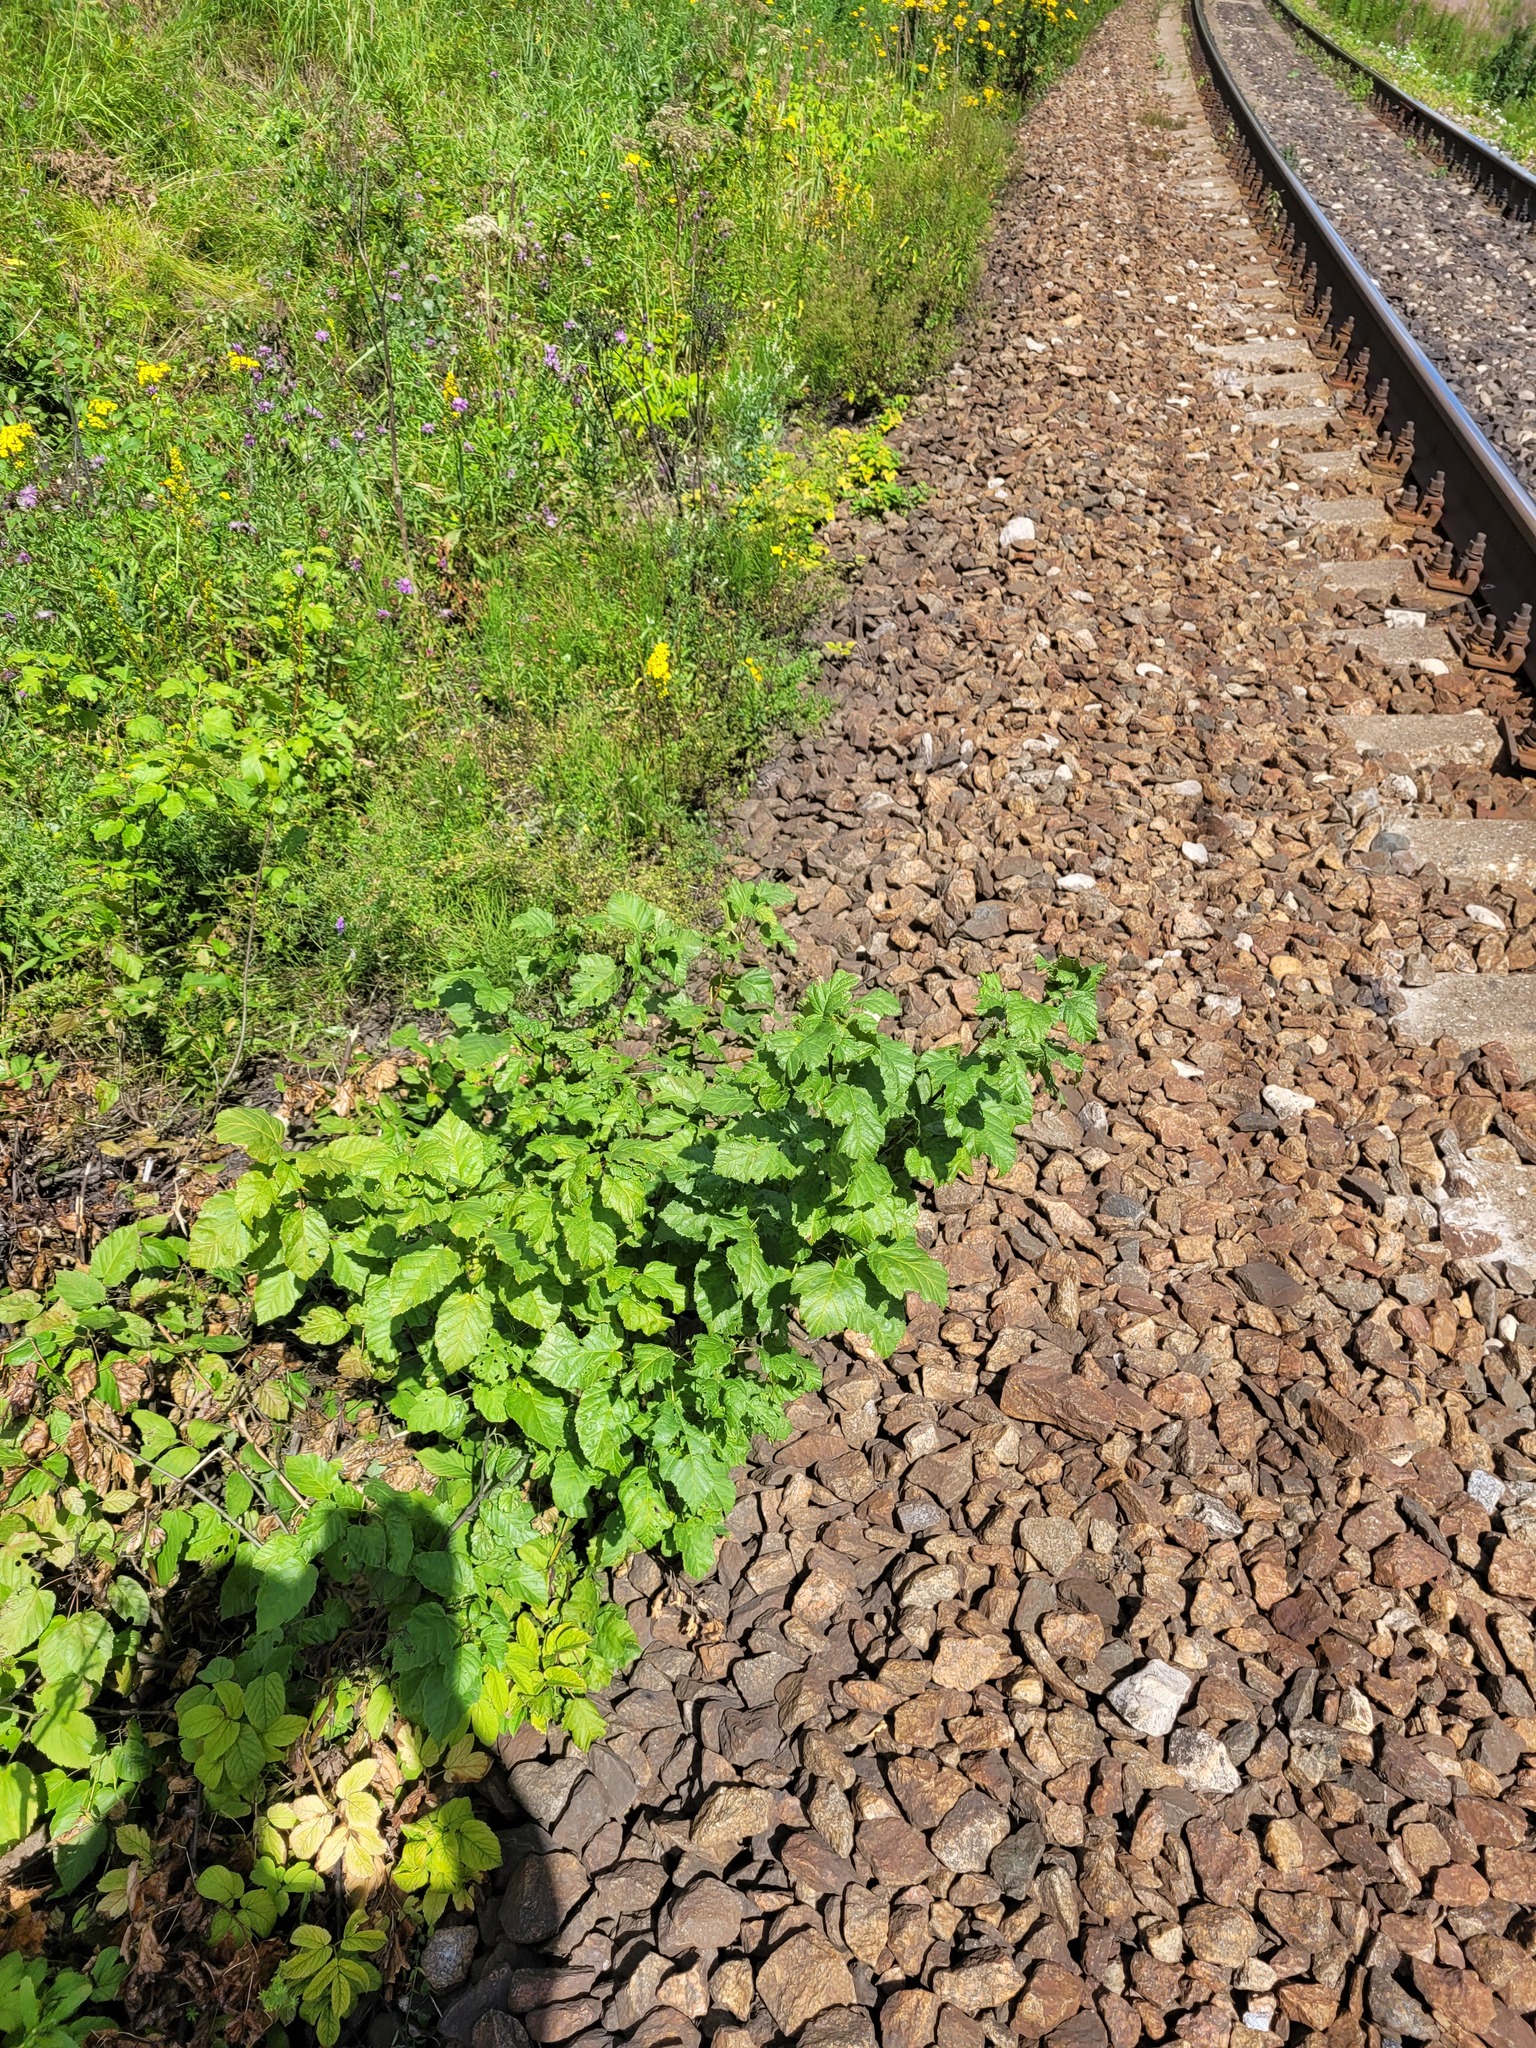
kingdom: Plantae
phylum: Tracheophyta
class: Magnoliopsida
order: Sapindales
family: Sapindaceae
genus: Acer
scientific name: Acer tataricum
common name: Tartar maple
